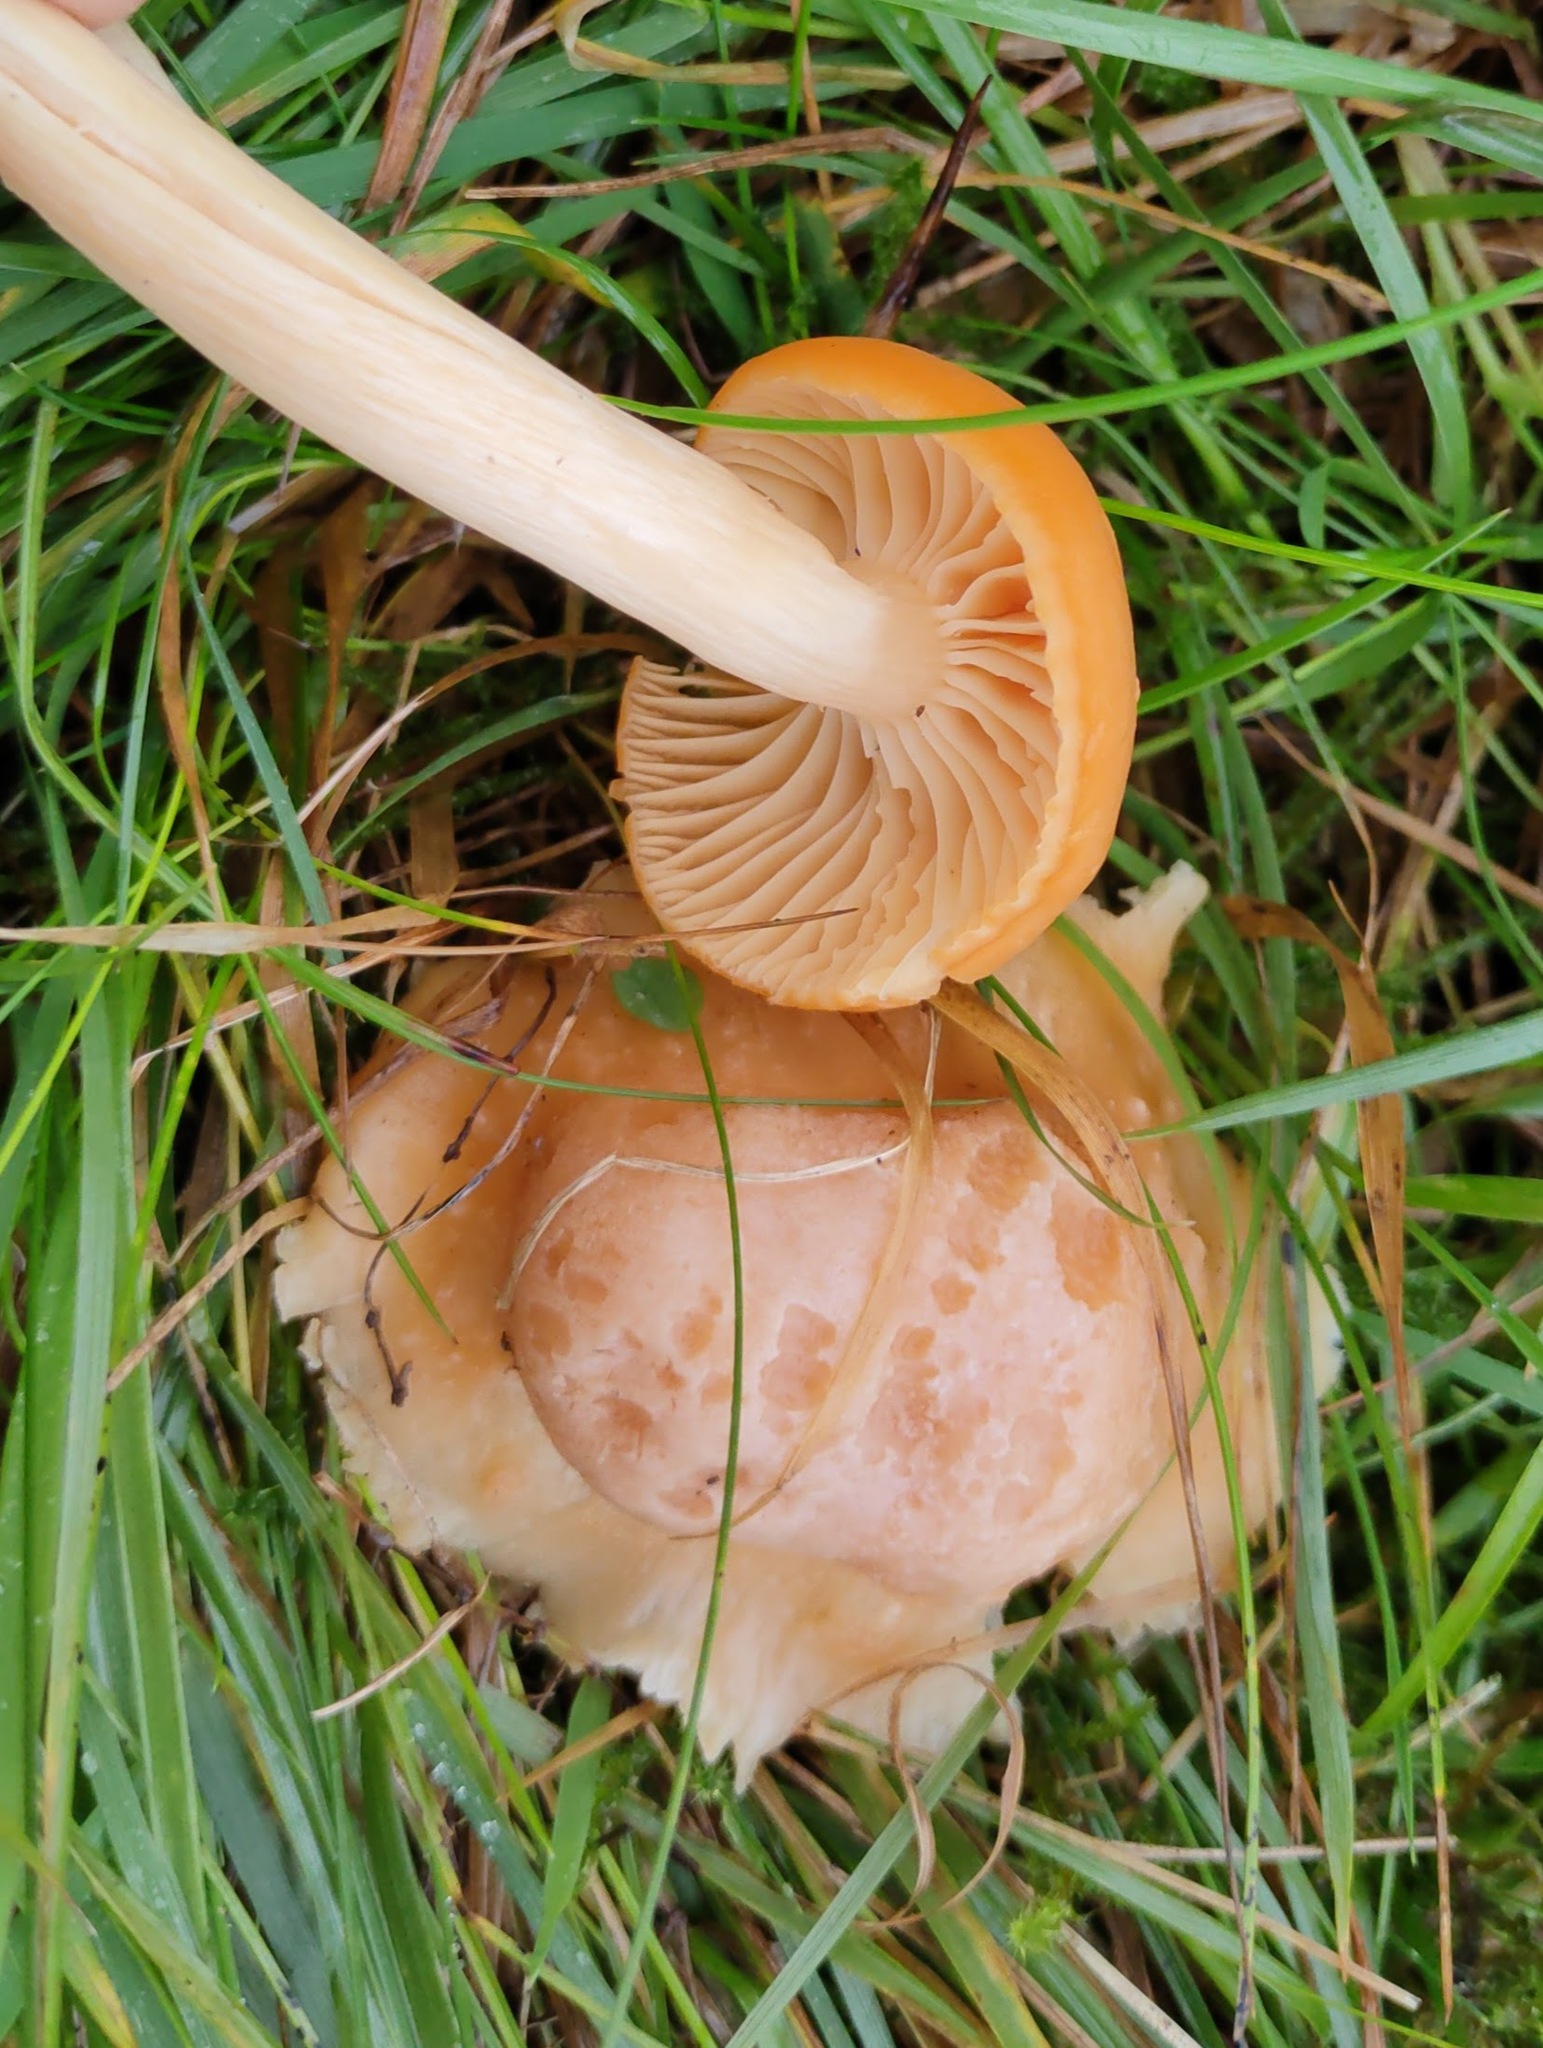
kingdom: Fungi
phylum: Basidiomycota
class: Agaricomycetes
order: Agaricales
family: Hygrophoraceae
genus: Cuphophyllus
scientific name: Cuphophyllus pratensis
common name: Meadow waxcap
